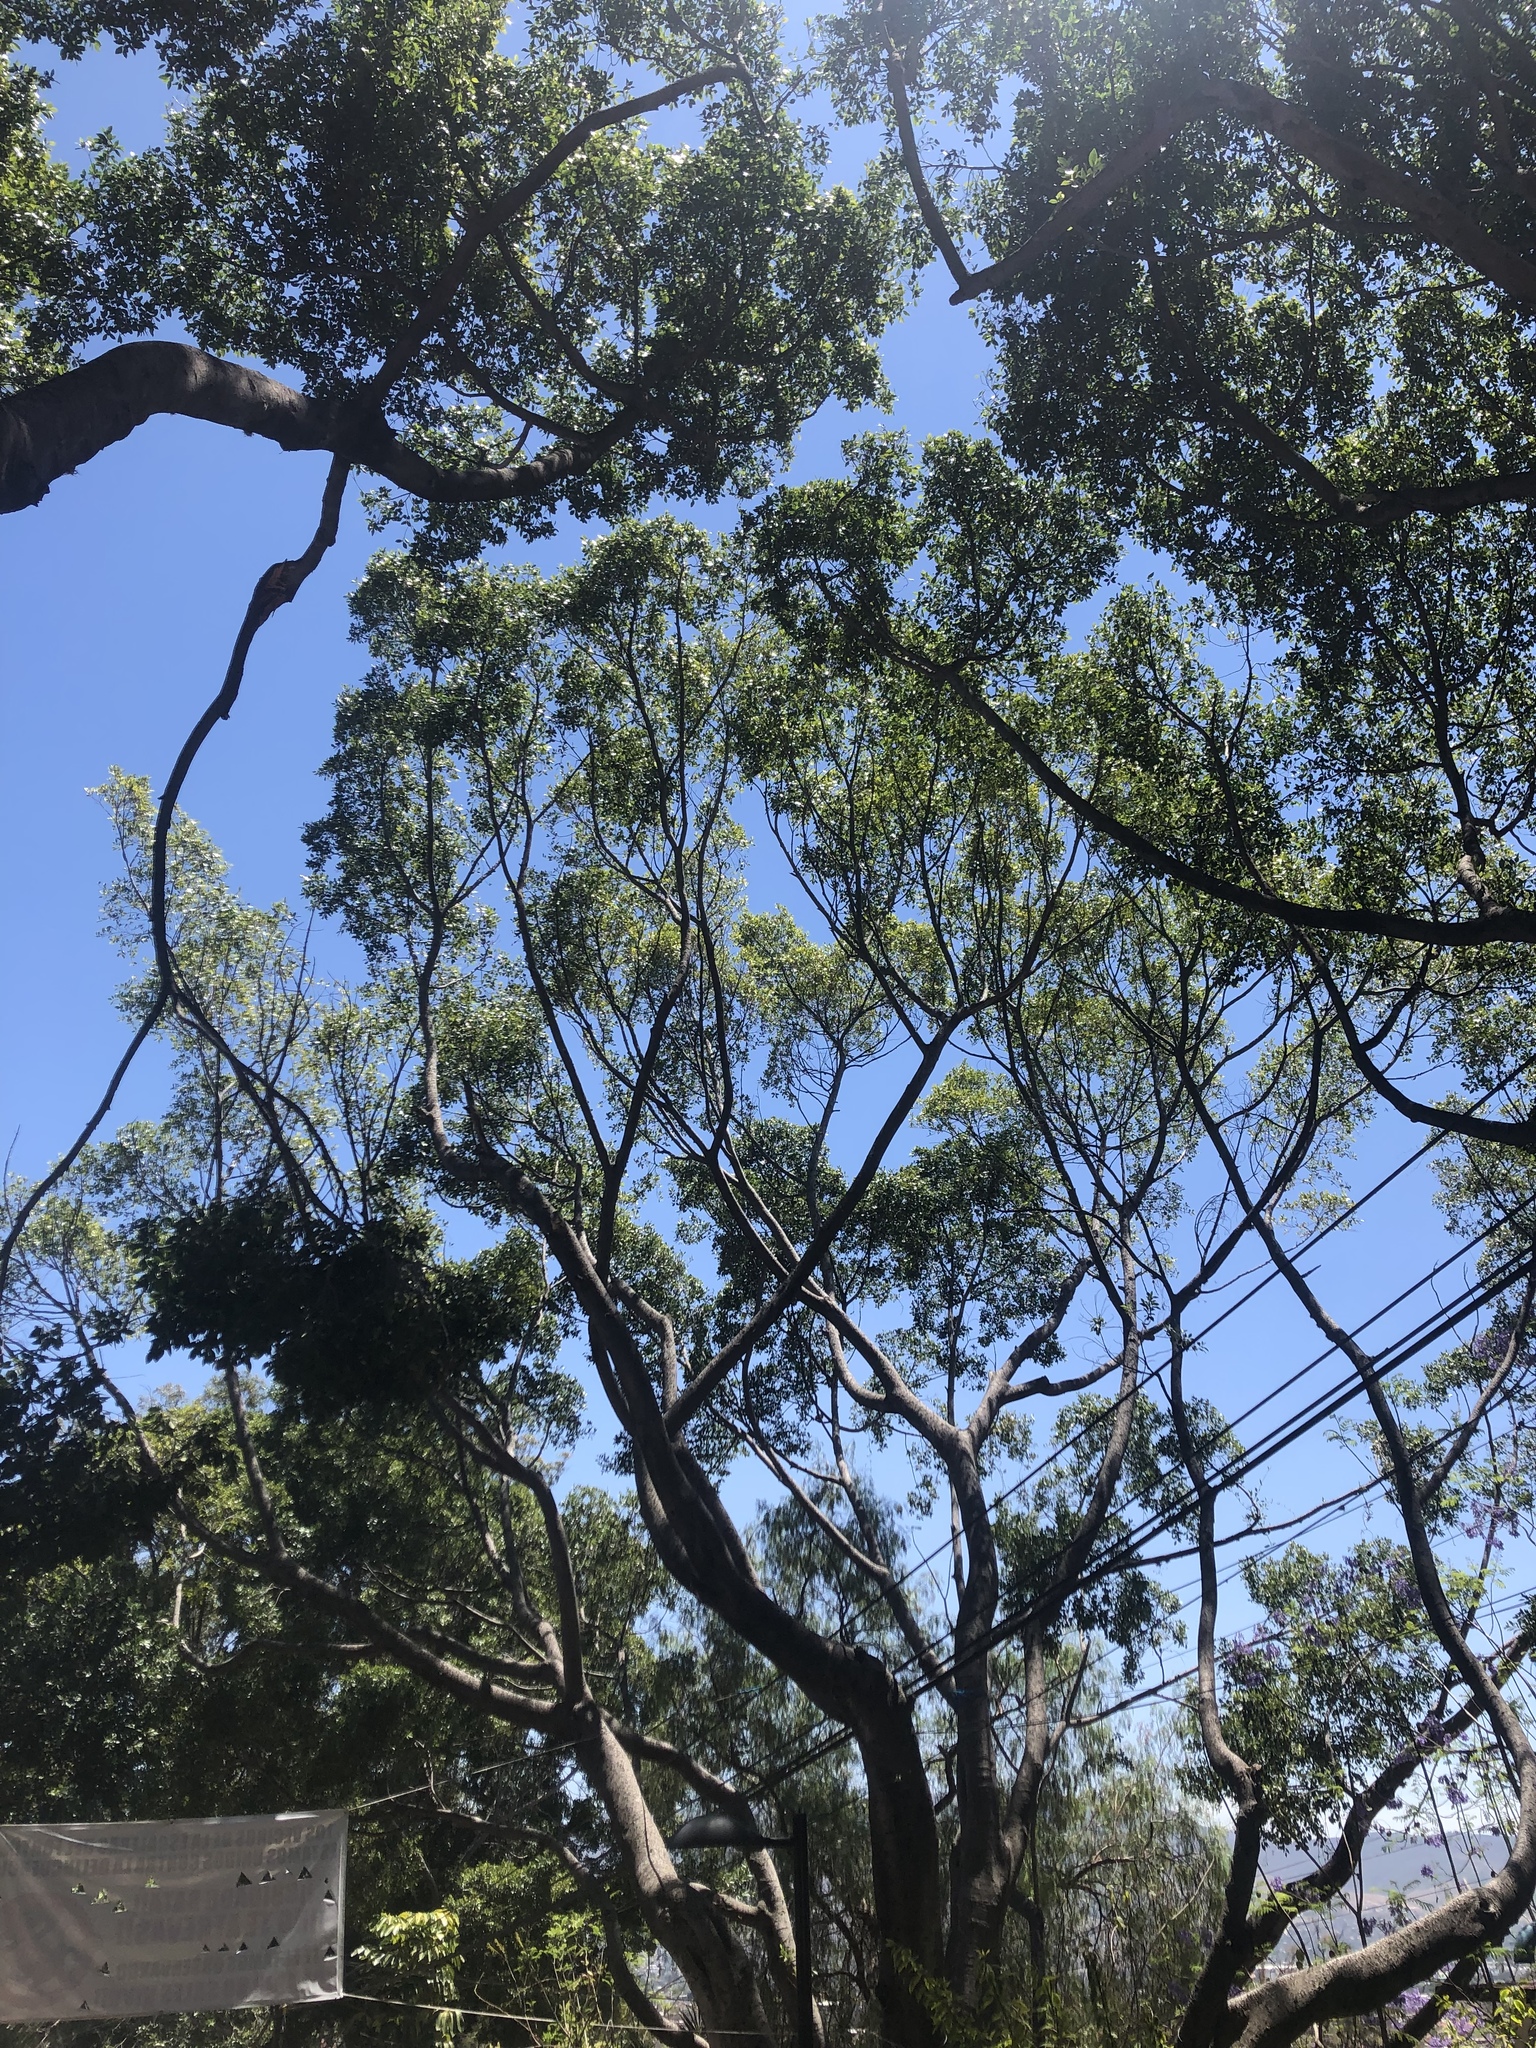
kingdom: Animalia
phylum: Chordata
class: Aves
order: Piciformes
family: Picidae
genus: Dryobates
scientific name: Dryobates scalaris
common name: Ladder-backed woodpecker
